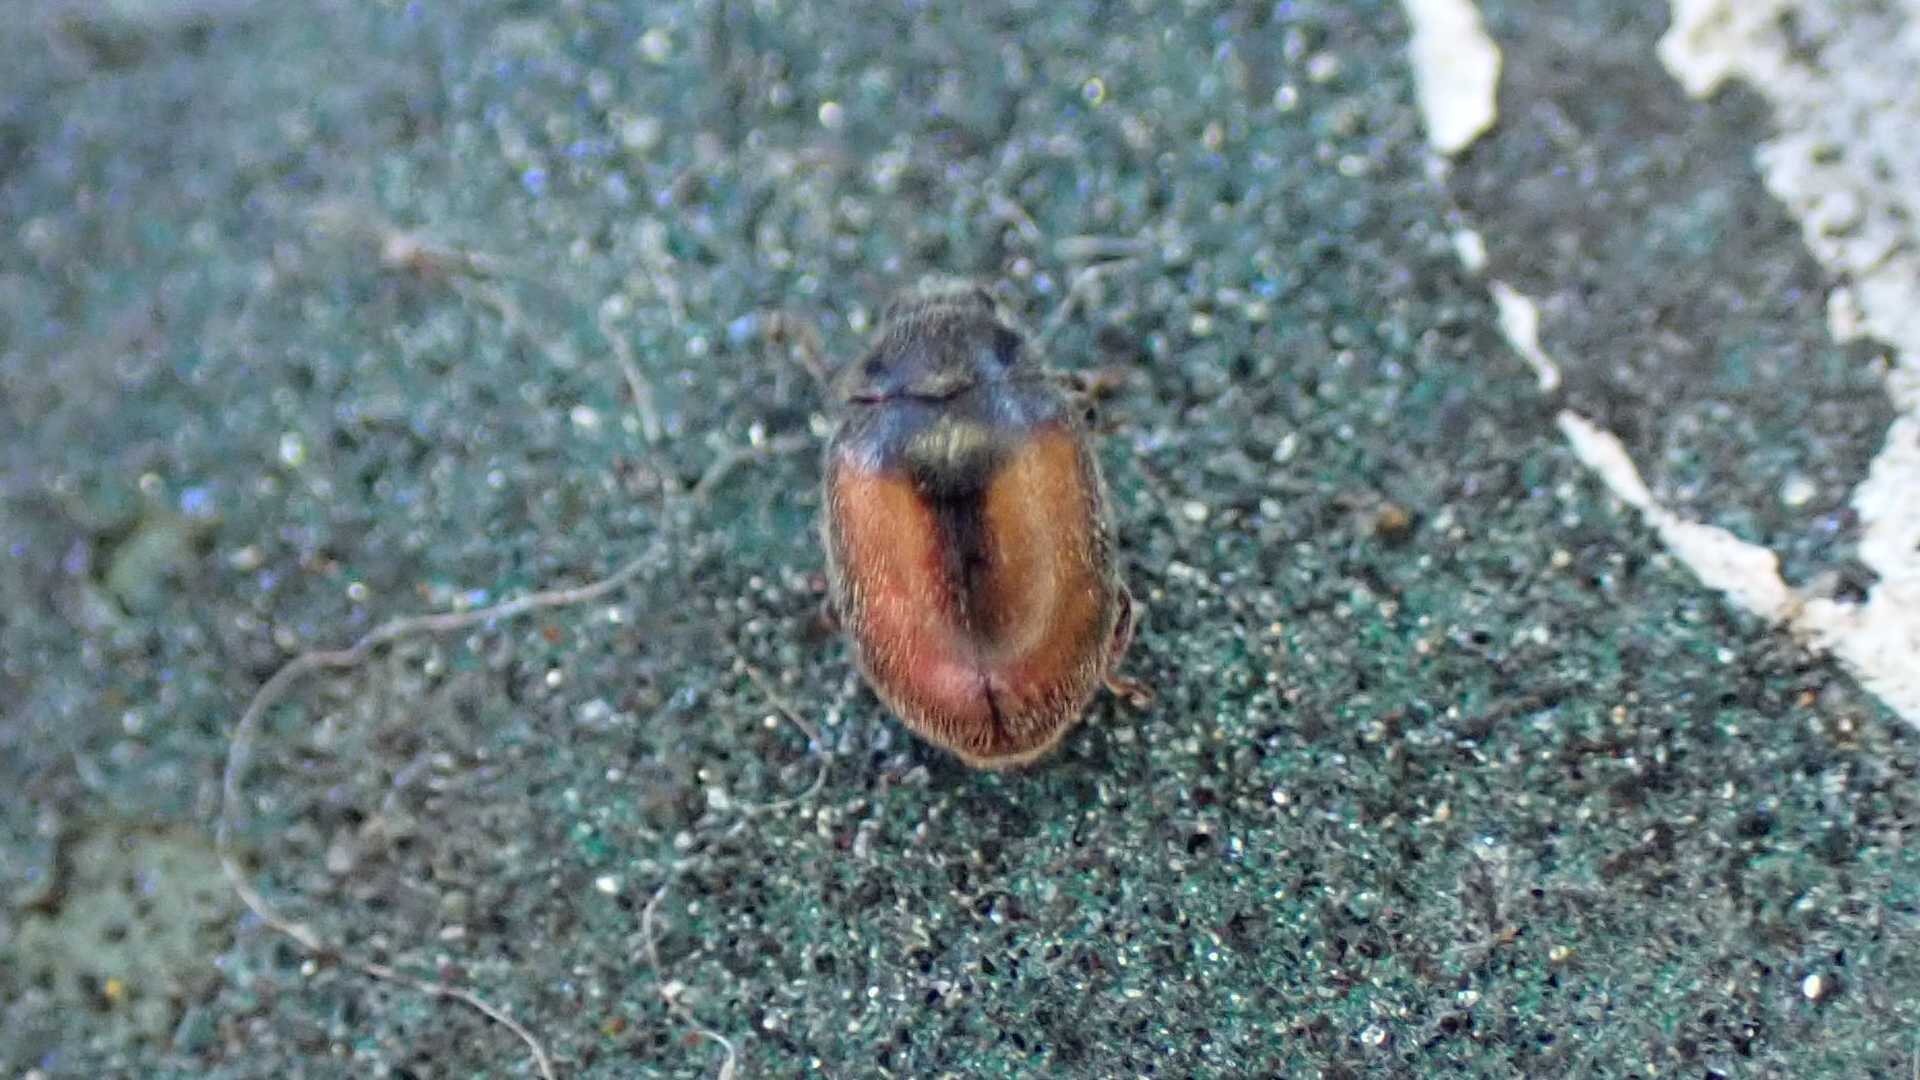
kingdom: Animalia
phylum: Arthropoda
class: Insecta
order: Coleoptera
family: Coccinellidae
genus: Scymnus
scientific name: Scymnus suturalis
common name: Ladybird beetle
